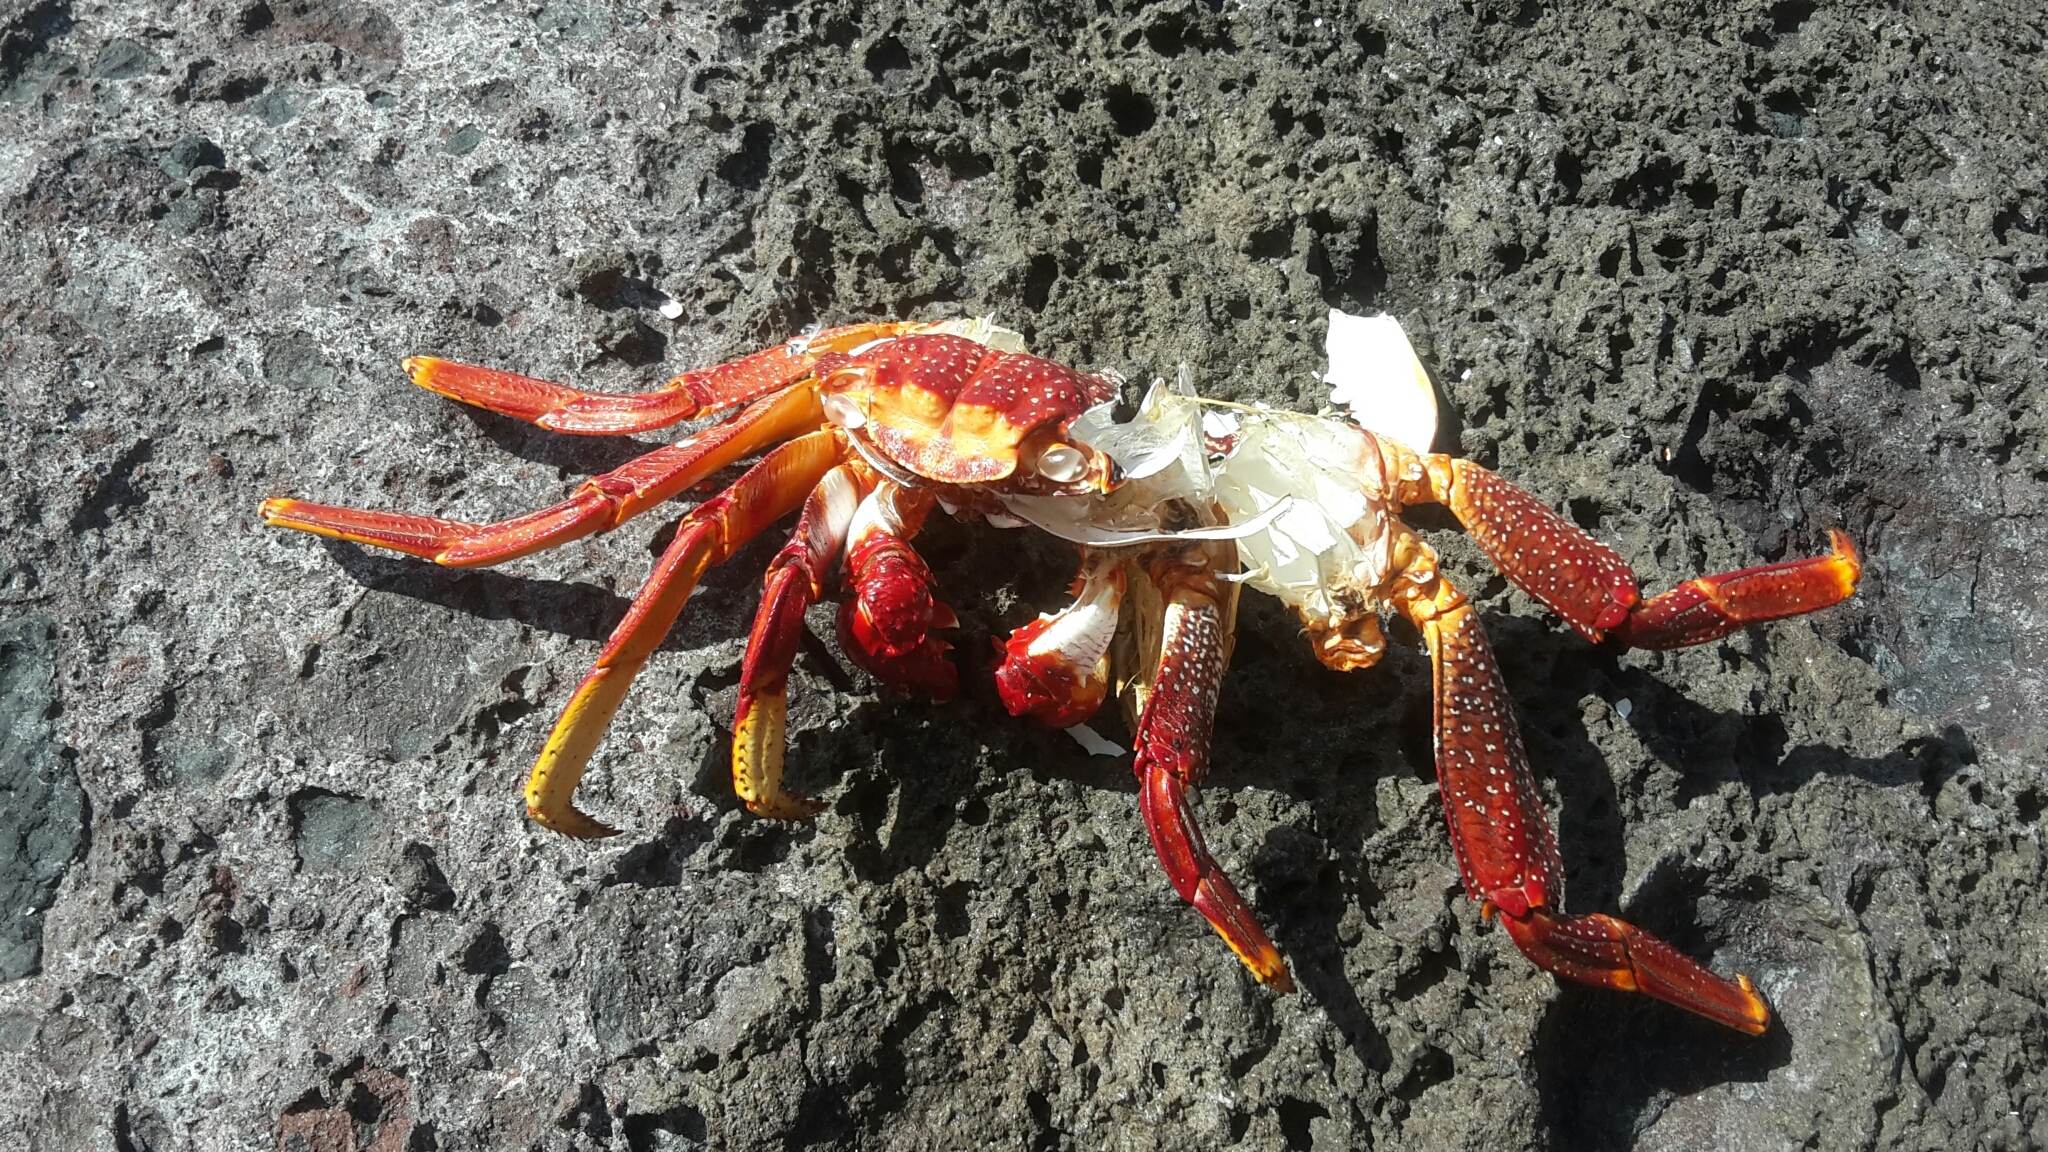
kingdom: Animalia
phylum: Arthropoda
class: Malacostraca
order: Decapoda
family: Grapsidae
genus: Grapsus
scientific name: Grapsus adscensionis
